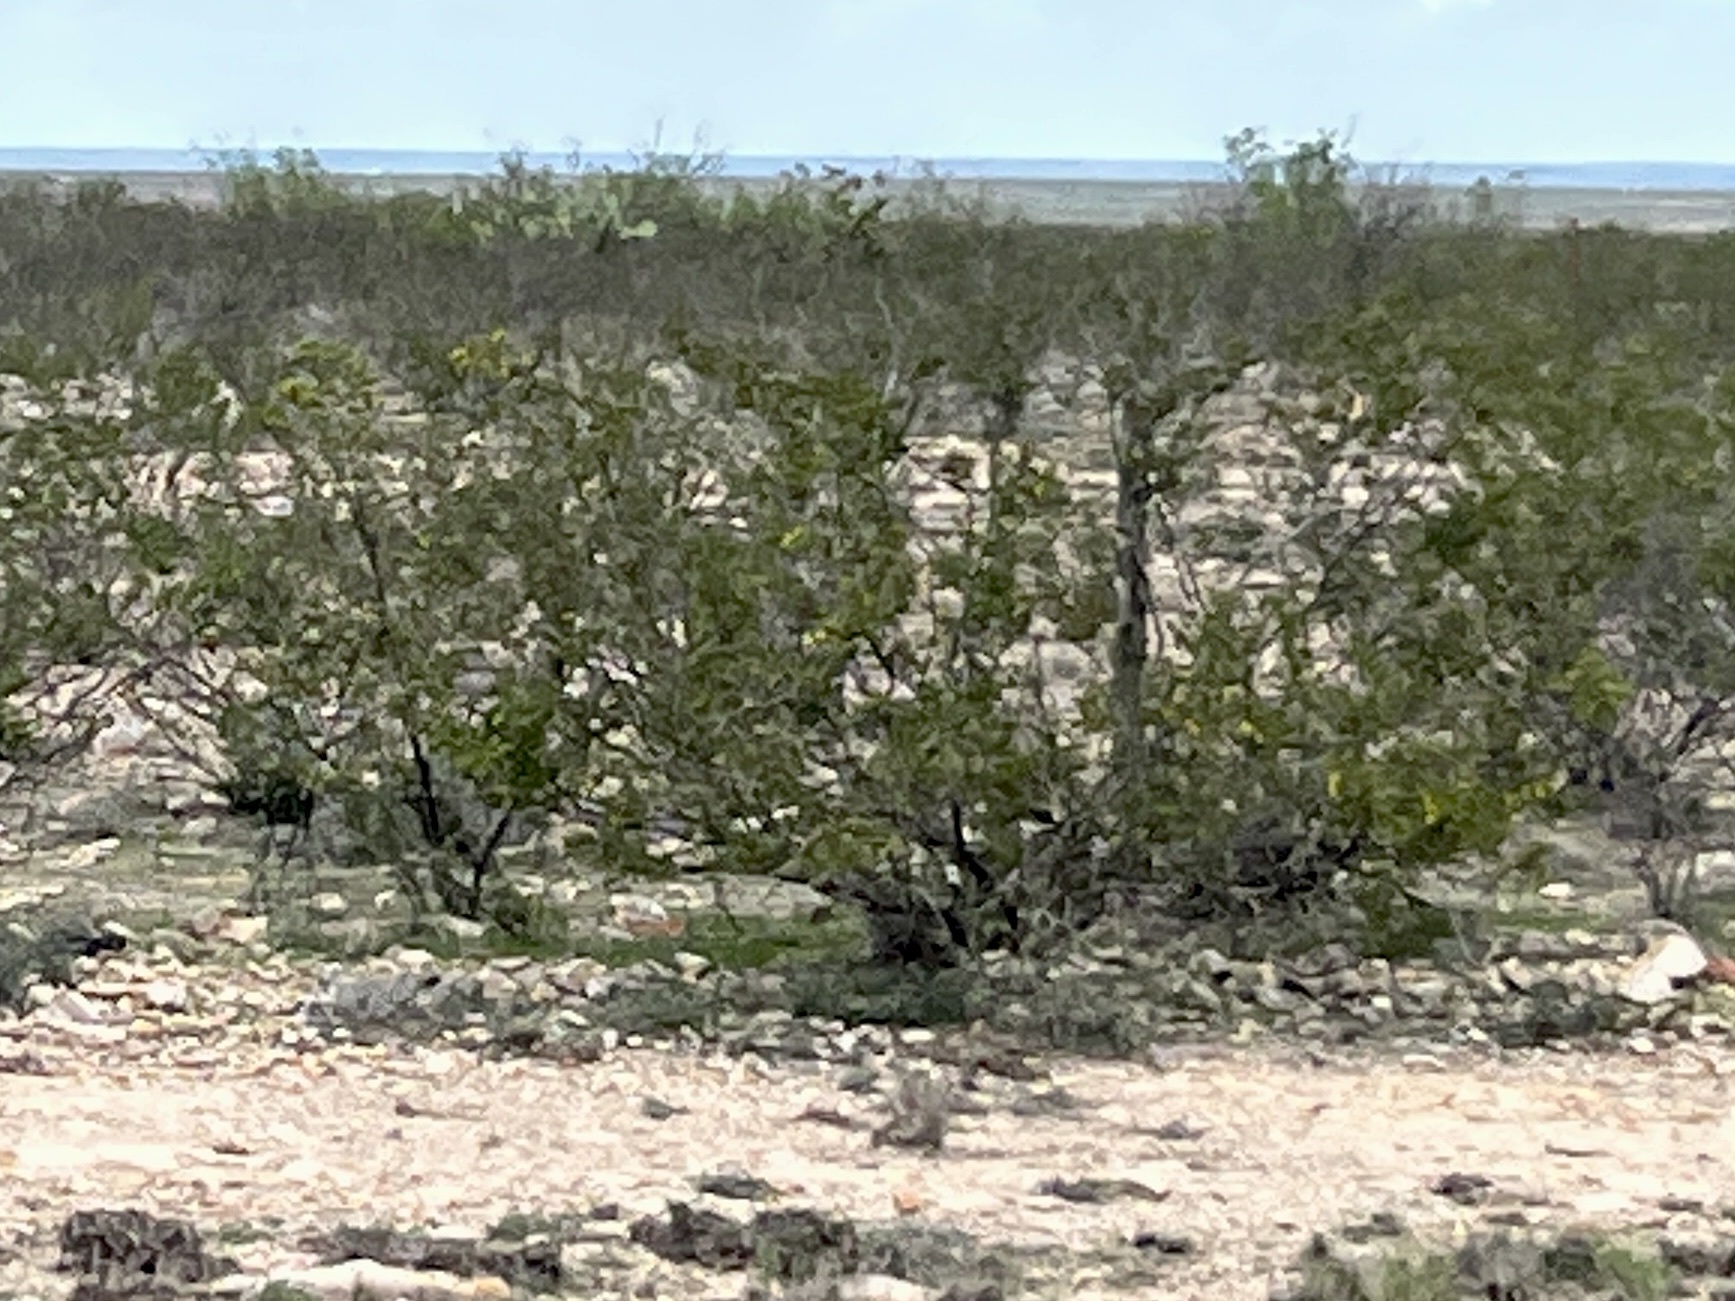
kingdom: Plantae
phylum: Tracheophyta
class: Magnoliopsida
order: Zygophyllales
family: Zygophyllaceae
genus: Larrea
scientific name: Larrea tridentata
